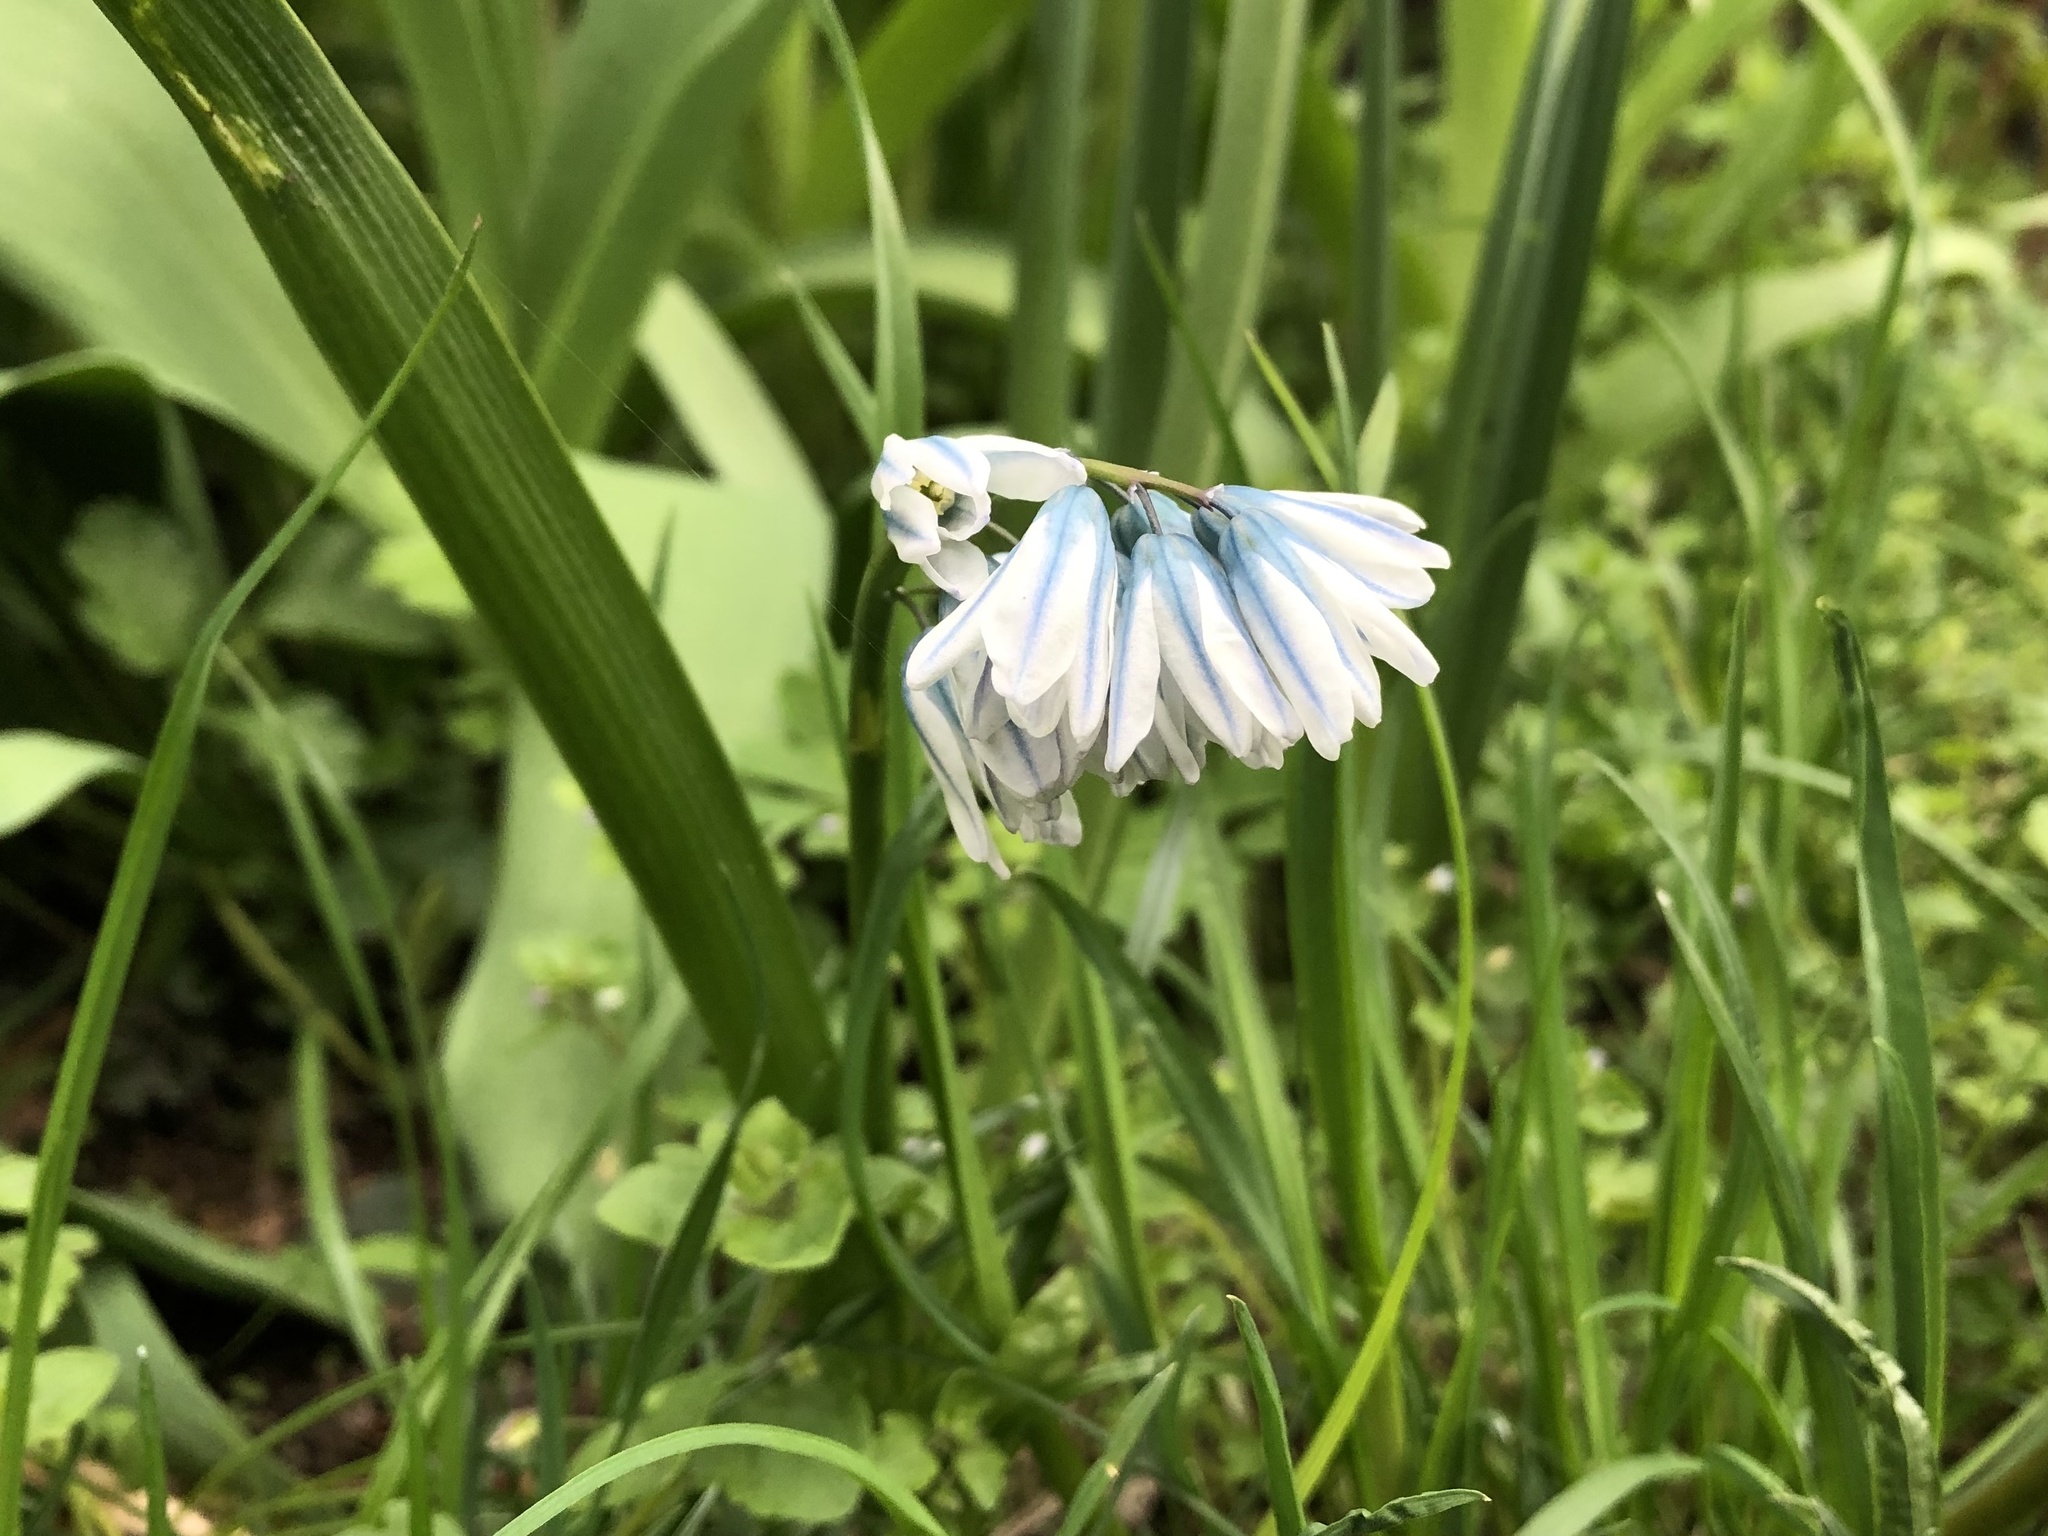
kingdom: Plantae
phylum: Tracheophyta
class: Liliopsida
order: Asparagales
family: Asparagaceae
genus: Puschkinia
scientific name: Puschkinia scilloides
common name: Striped squill
